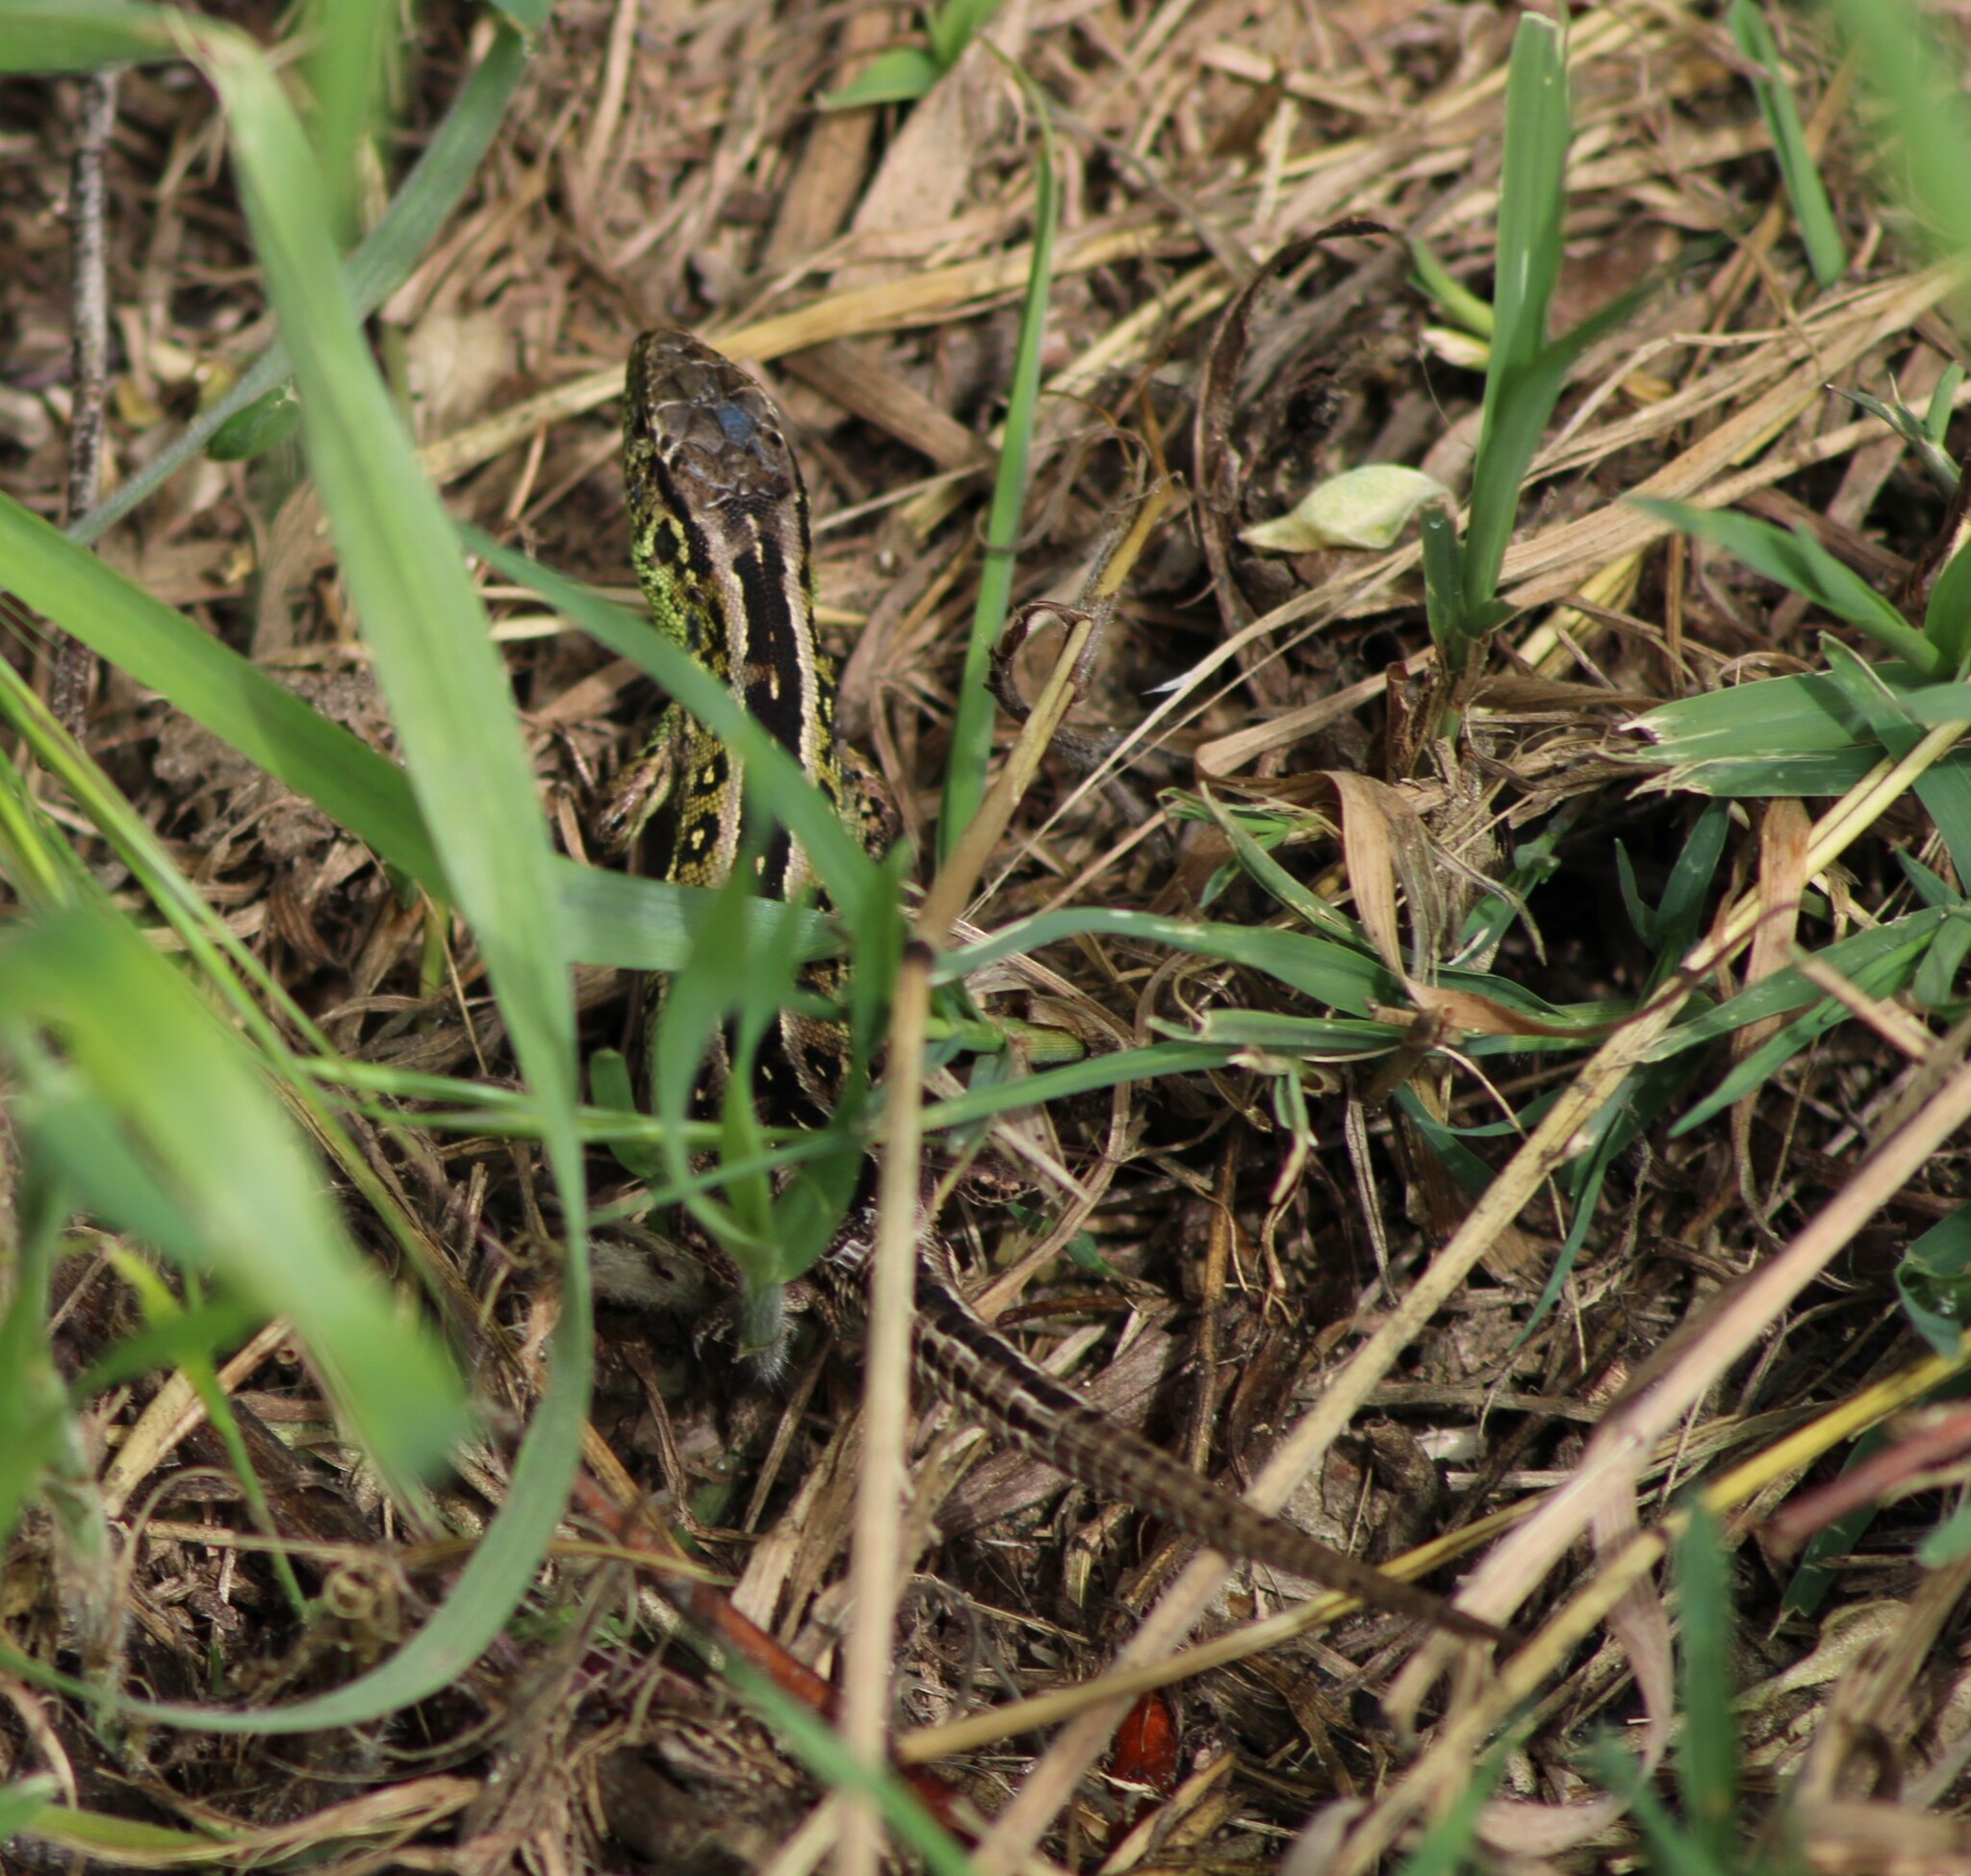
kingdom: Animalia
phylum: Chordata
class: Squamata
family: Lacertidae
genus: Lacerta
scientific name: Lacerta agilis
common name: Sand lizard
